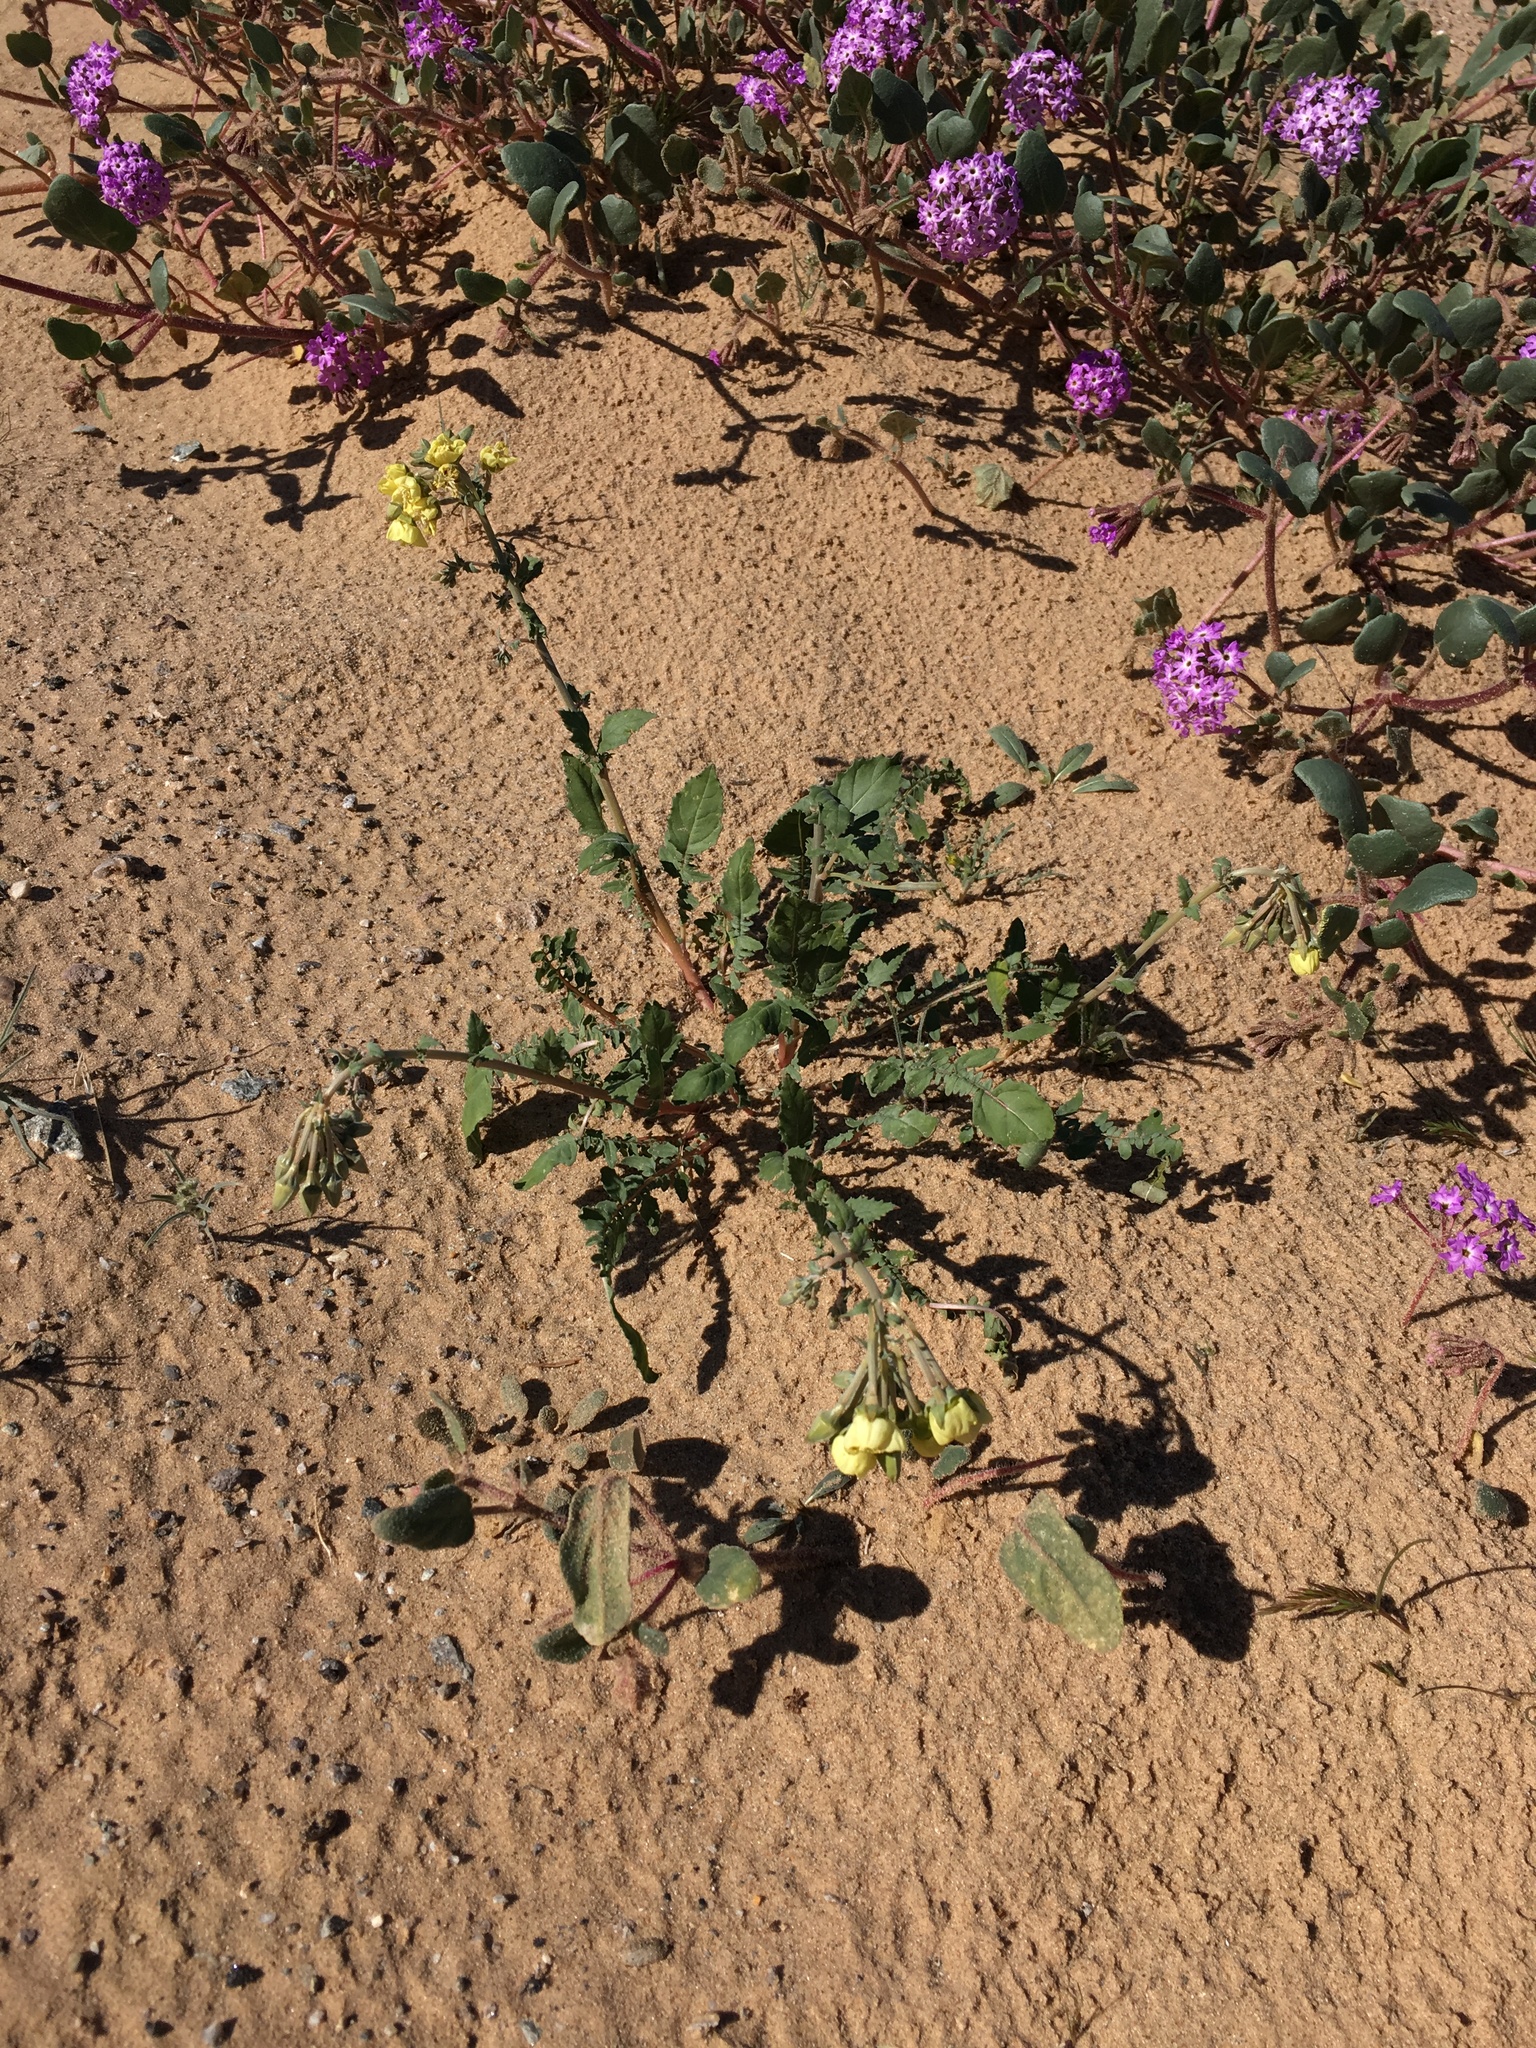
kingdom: Plantae
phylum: Tracheophyta
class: Magnoliopsida
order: Myrtales
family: Onagraceae
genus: Chylismia
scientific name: Chylismia claviformis
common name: Browneyes
